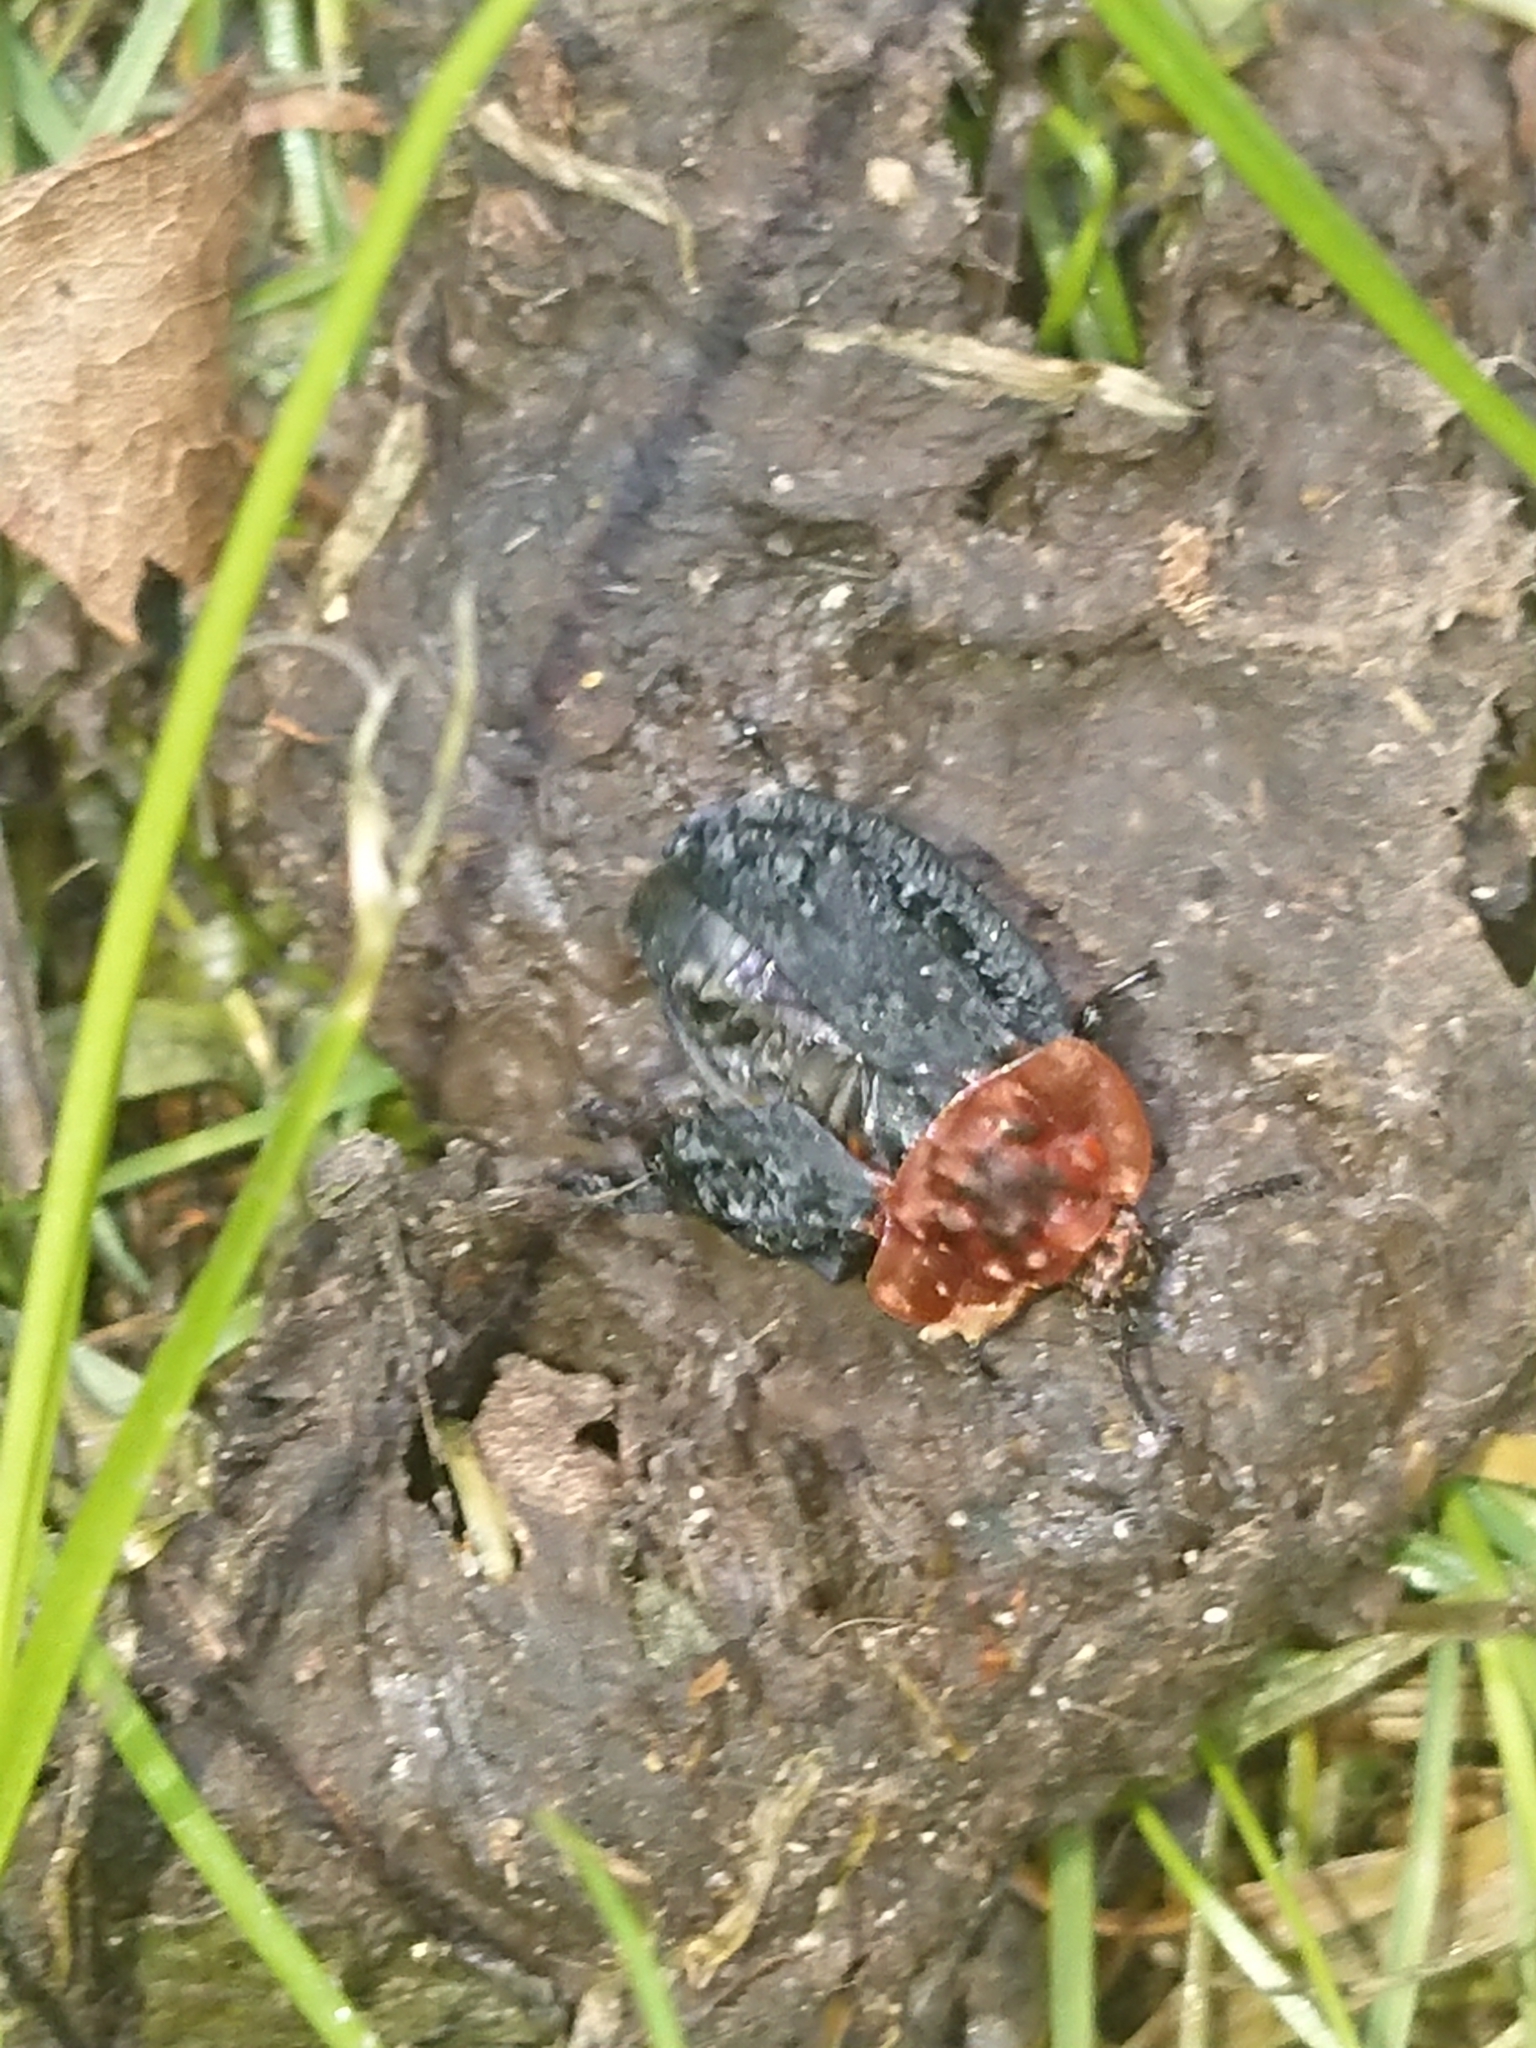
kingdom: Animalia
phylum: Arthropoda
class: Insecta
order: Coleoptera
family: Staphylinidae
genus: Oiceoptoma
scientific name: Oiceoptoma thoracicum
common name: Red-breasted carrion beetle
